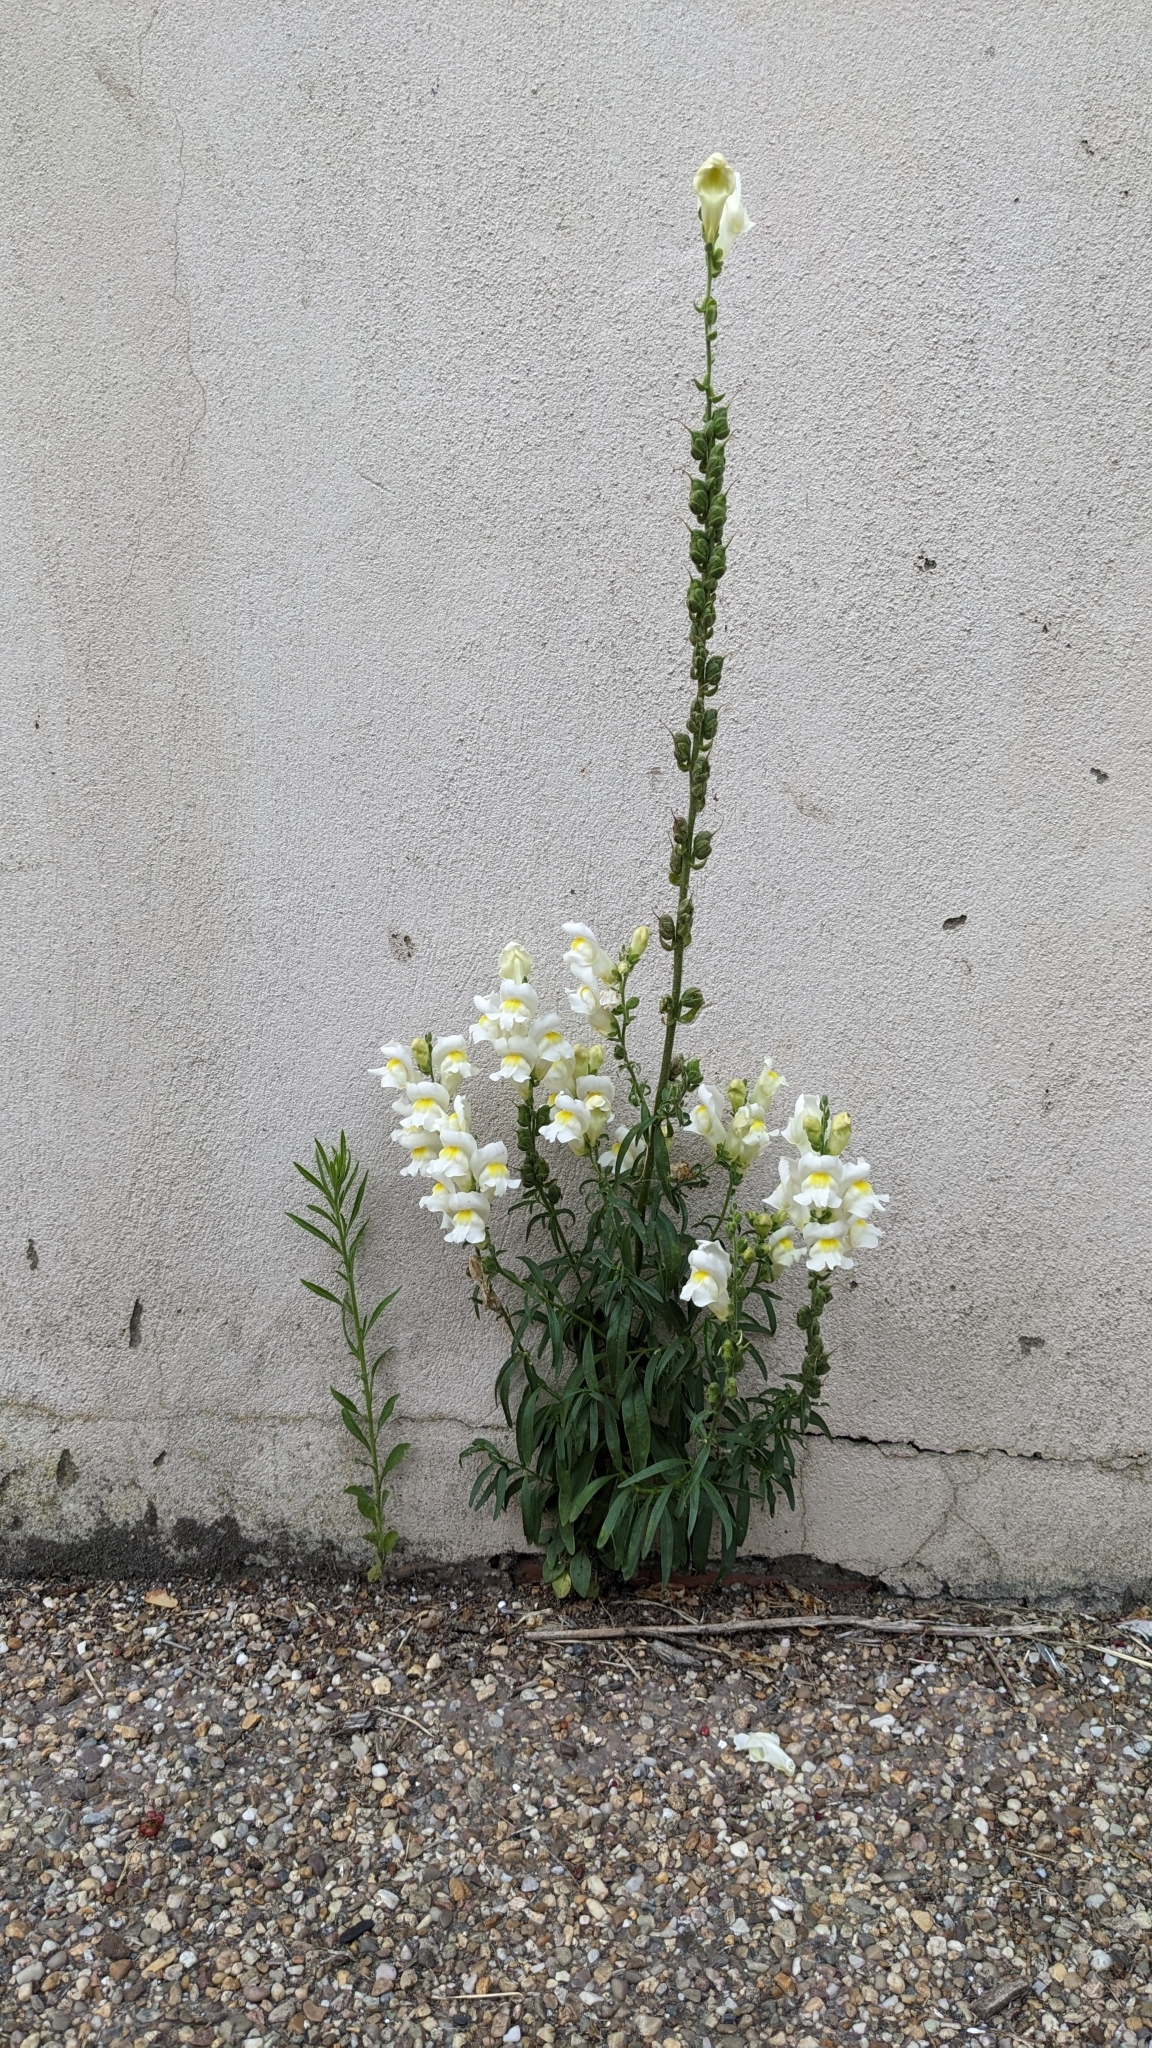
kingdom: Plantae
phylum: Tracheophyta
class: Magnoliopsida
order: Lamiales
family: Plantaginaceae
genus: Antirrhinum
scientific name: Antirrhinum majus
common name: Snapdragon
